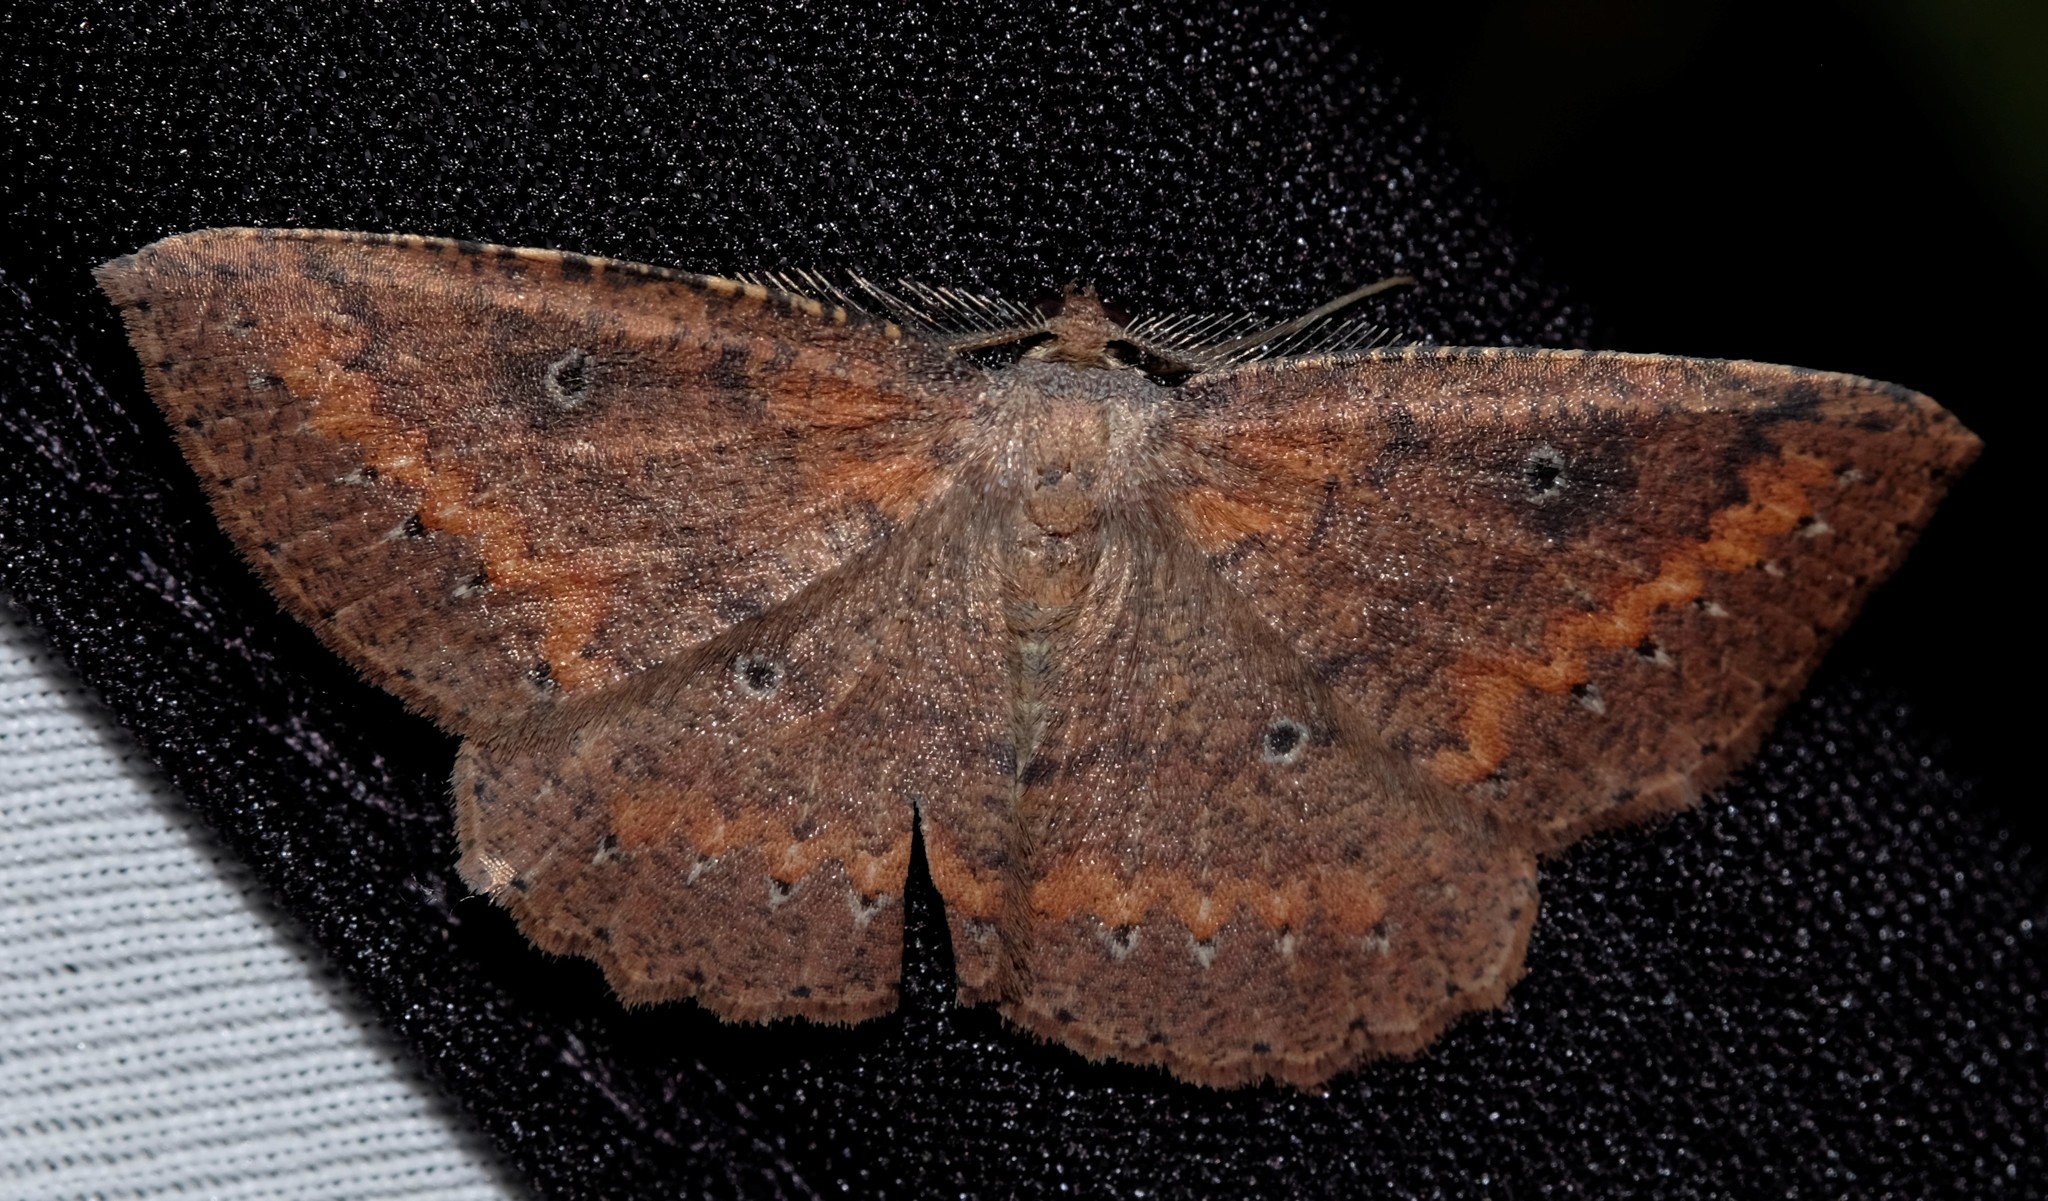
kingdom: Animalia
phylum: Arthropoda
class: Insecta
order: Lepidoptera
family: Geometridae
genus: Casbia
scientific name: Casbia melanops
